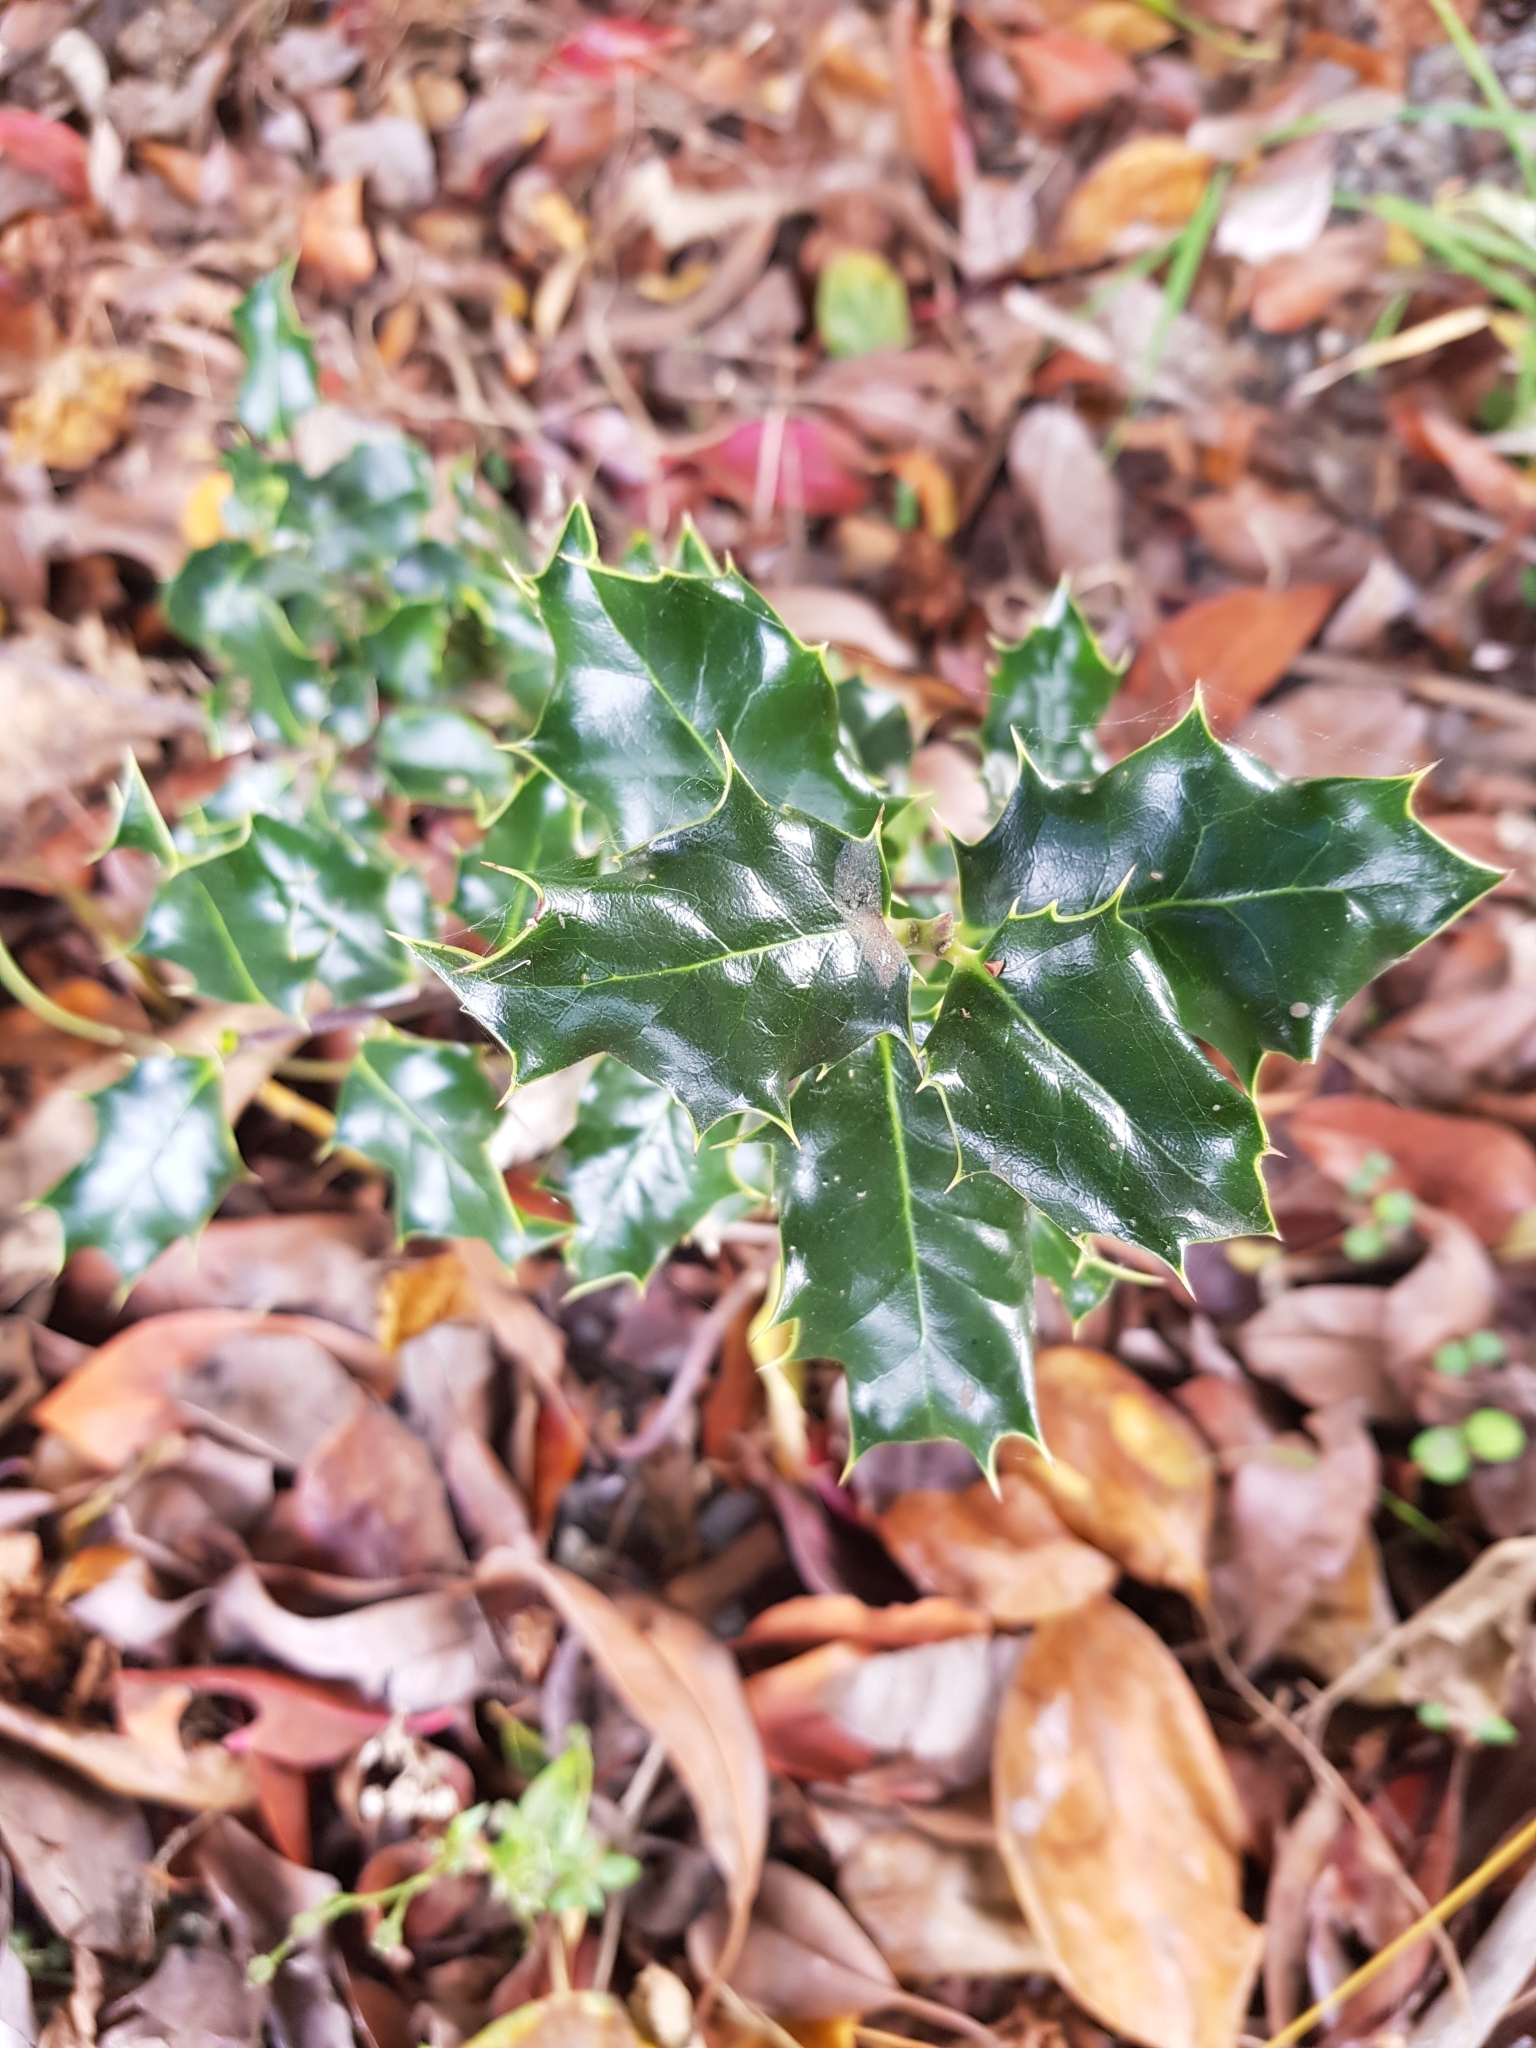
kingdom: Plantae
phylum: Tracheophyta
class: Magnoliopsida
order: Aquifoliales
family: Aquifoliaceae
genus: Ilex
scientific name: Ilex aquifolium
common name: English holly
